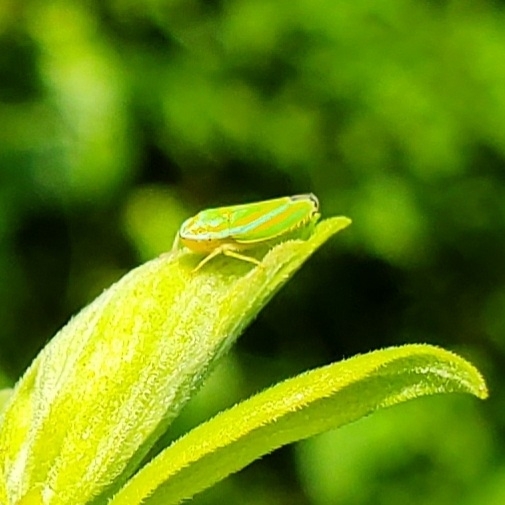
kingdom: Animalia
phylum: Arthropoda
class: Insecta
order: Hemiptera
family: Cicadellidae
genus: Graphocephala
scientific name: Graphocephala versuta
